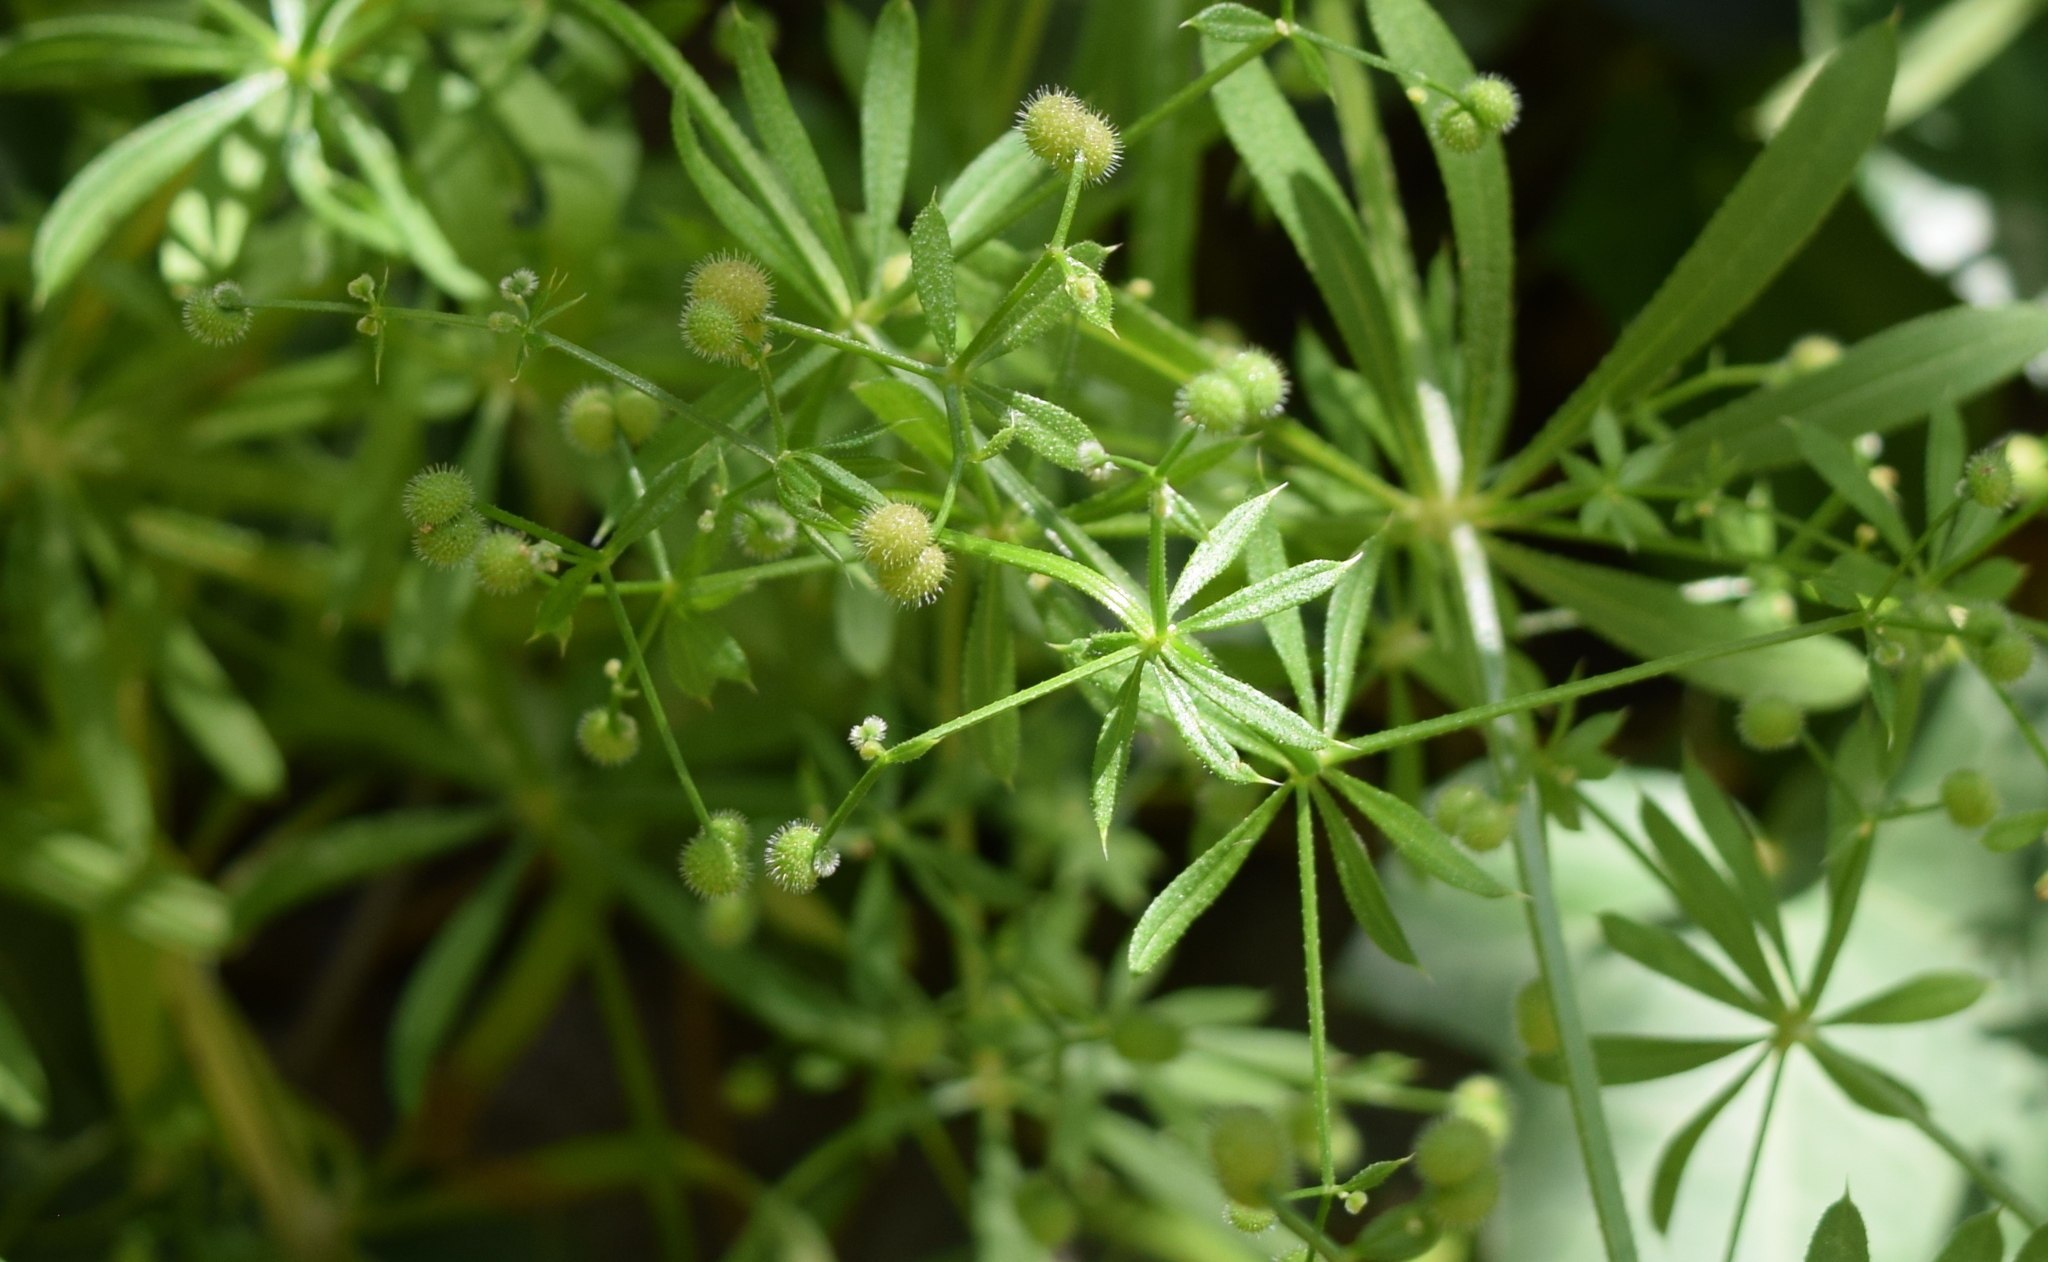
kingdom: Plantae
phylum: Tracheophyta
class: Magnoliopsida
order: Gentianales
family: Rubiaceae
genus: Galium
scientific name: Galium aparine
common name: Cleavers
